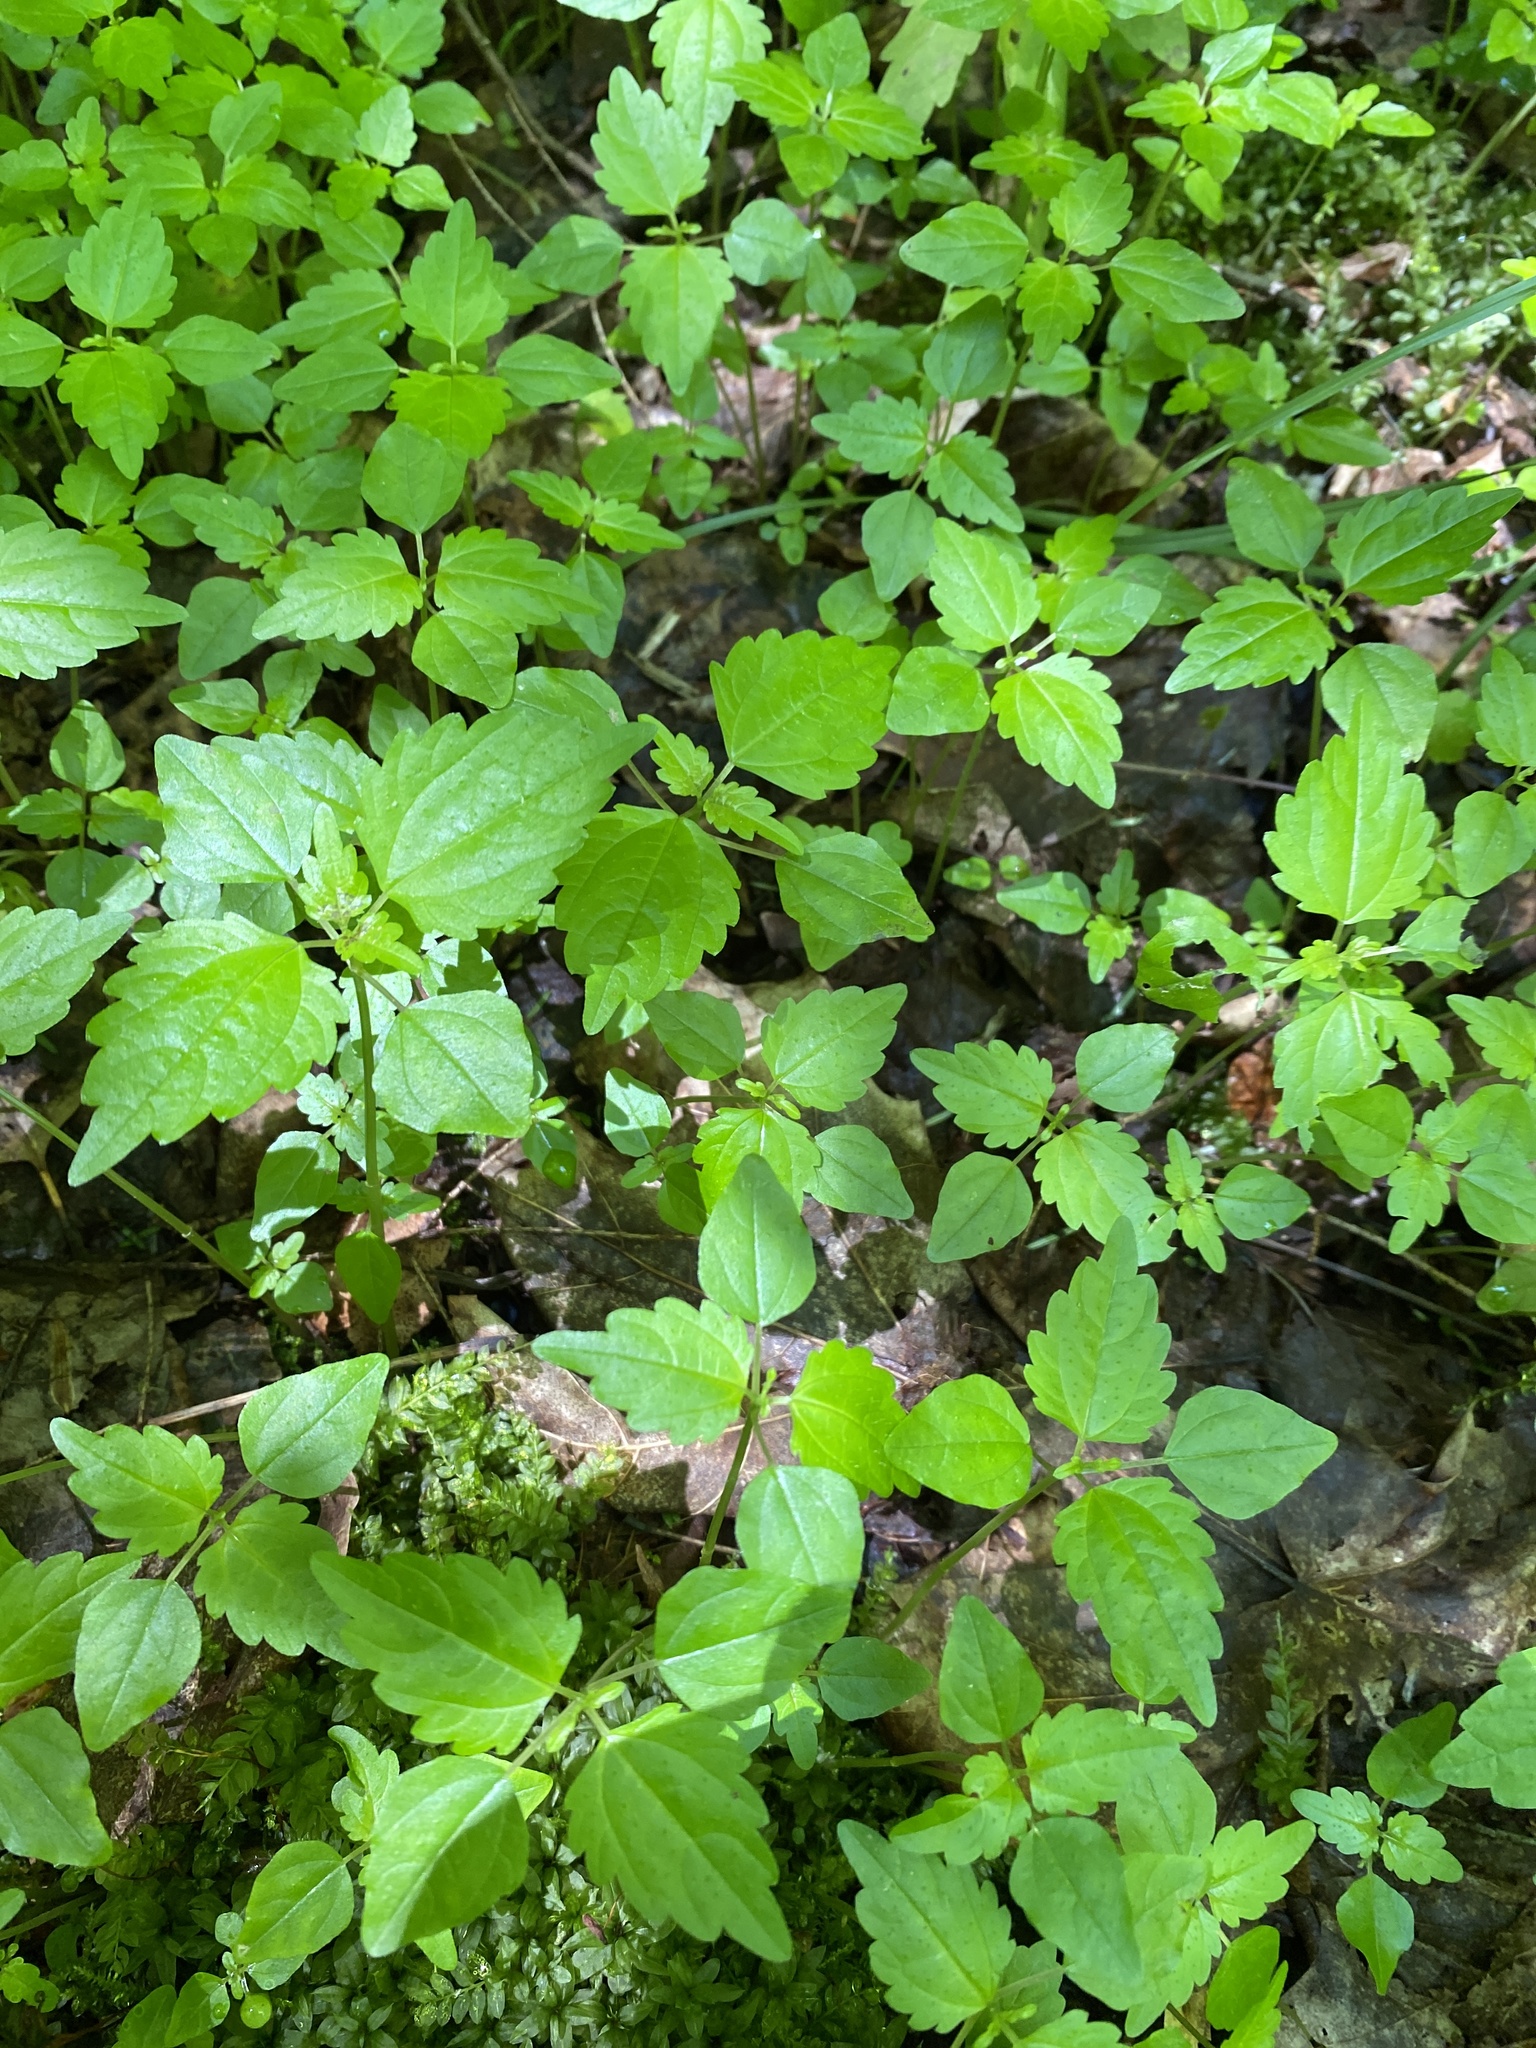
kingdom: Plantae
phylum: Tracheophyta
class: Magnoliopsida
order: Rosales
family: Urticaceae
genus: Pilea
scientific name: Pilea pumila
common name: Clearweed
